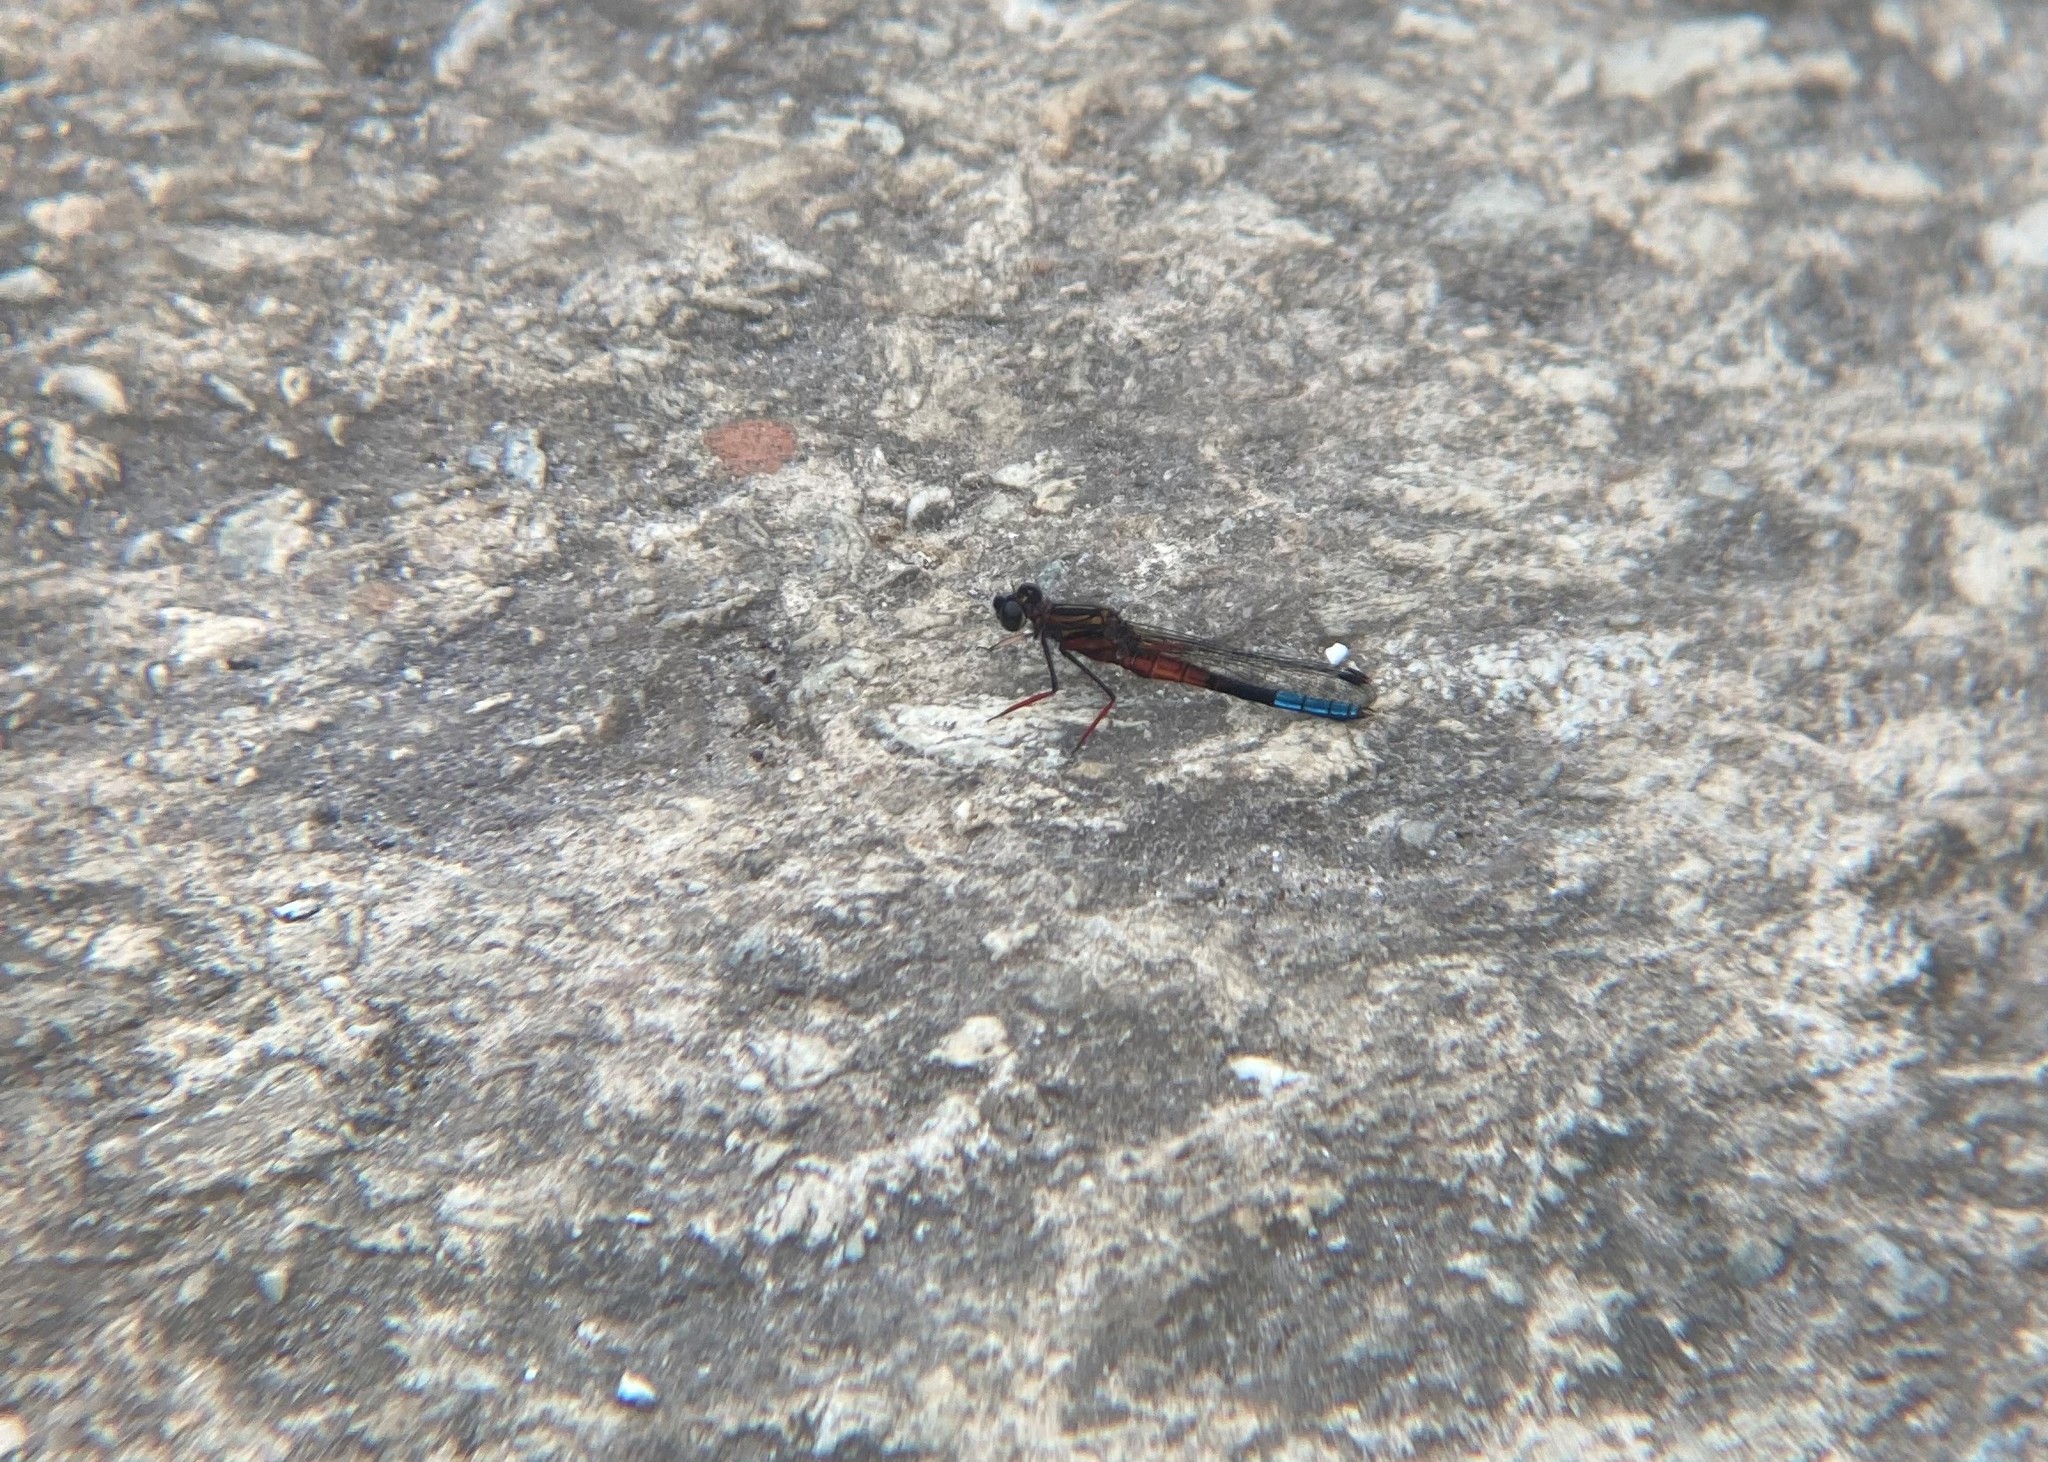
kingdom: Animalia
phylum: Arthropoda
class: Insecta
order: Odonata
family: Chlorocyphidae
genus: Platycypha
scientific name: Platycypha fitzsimonsi
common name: Boulder jewel
